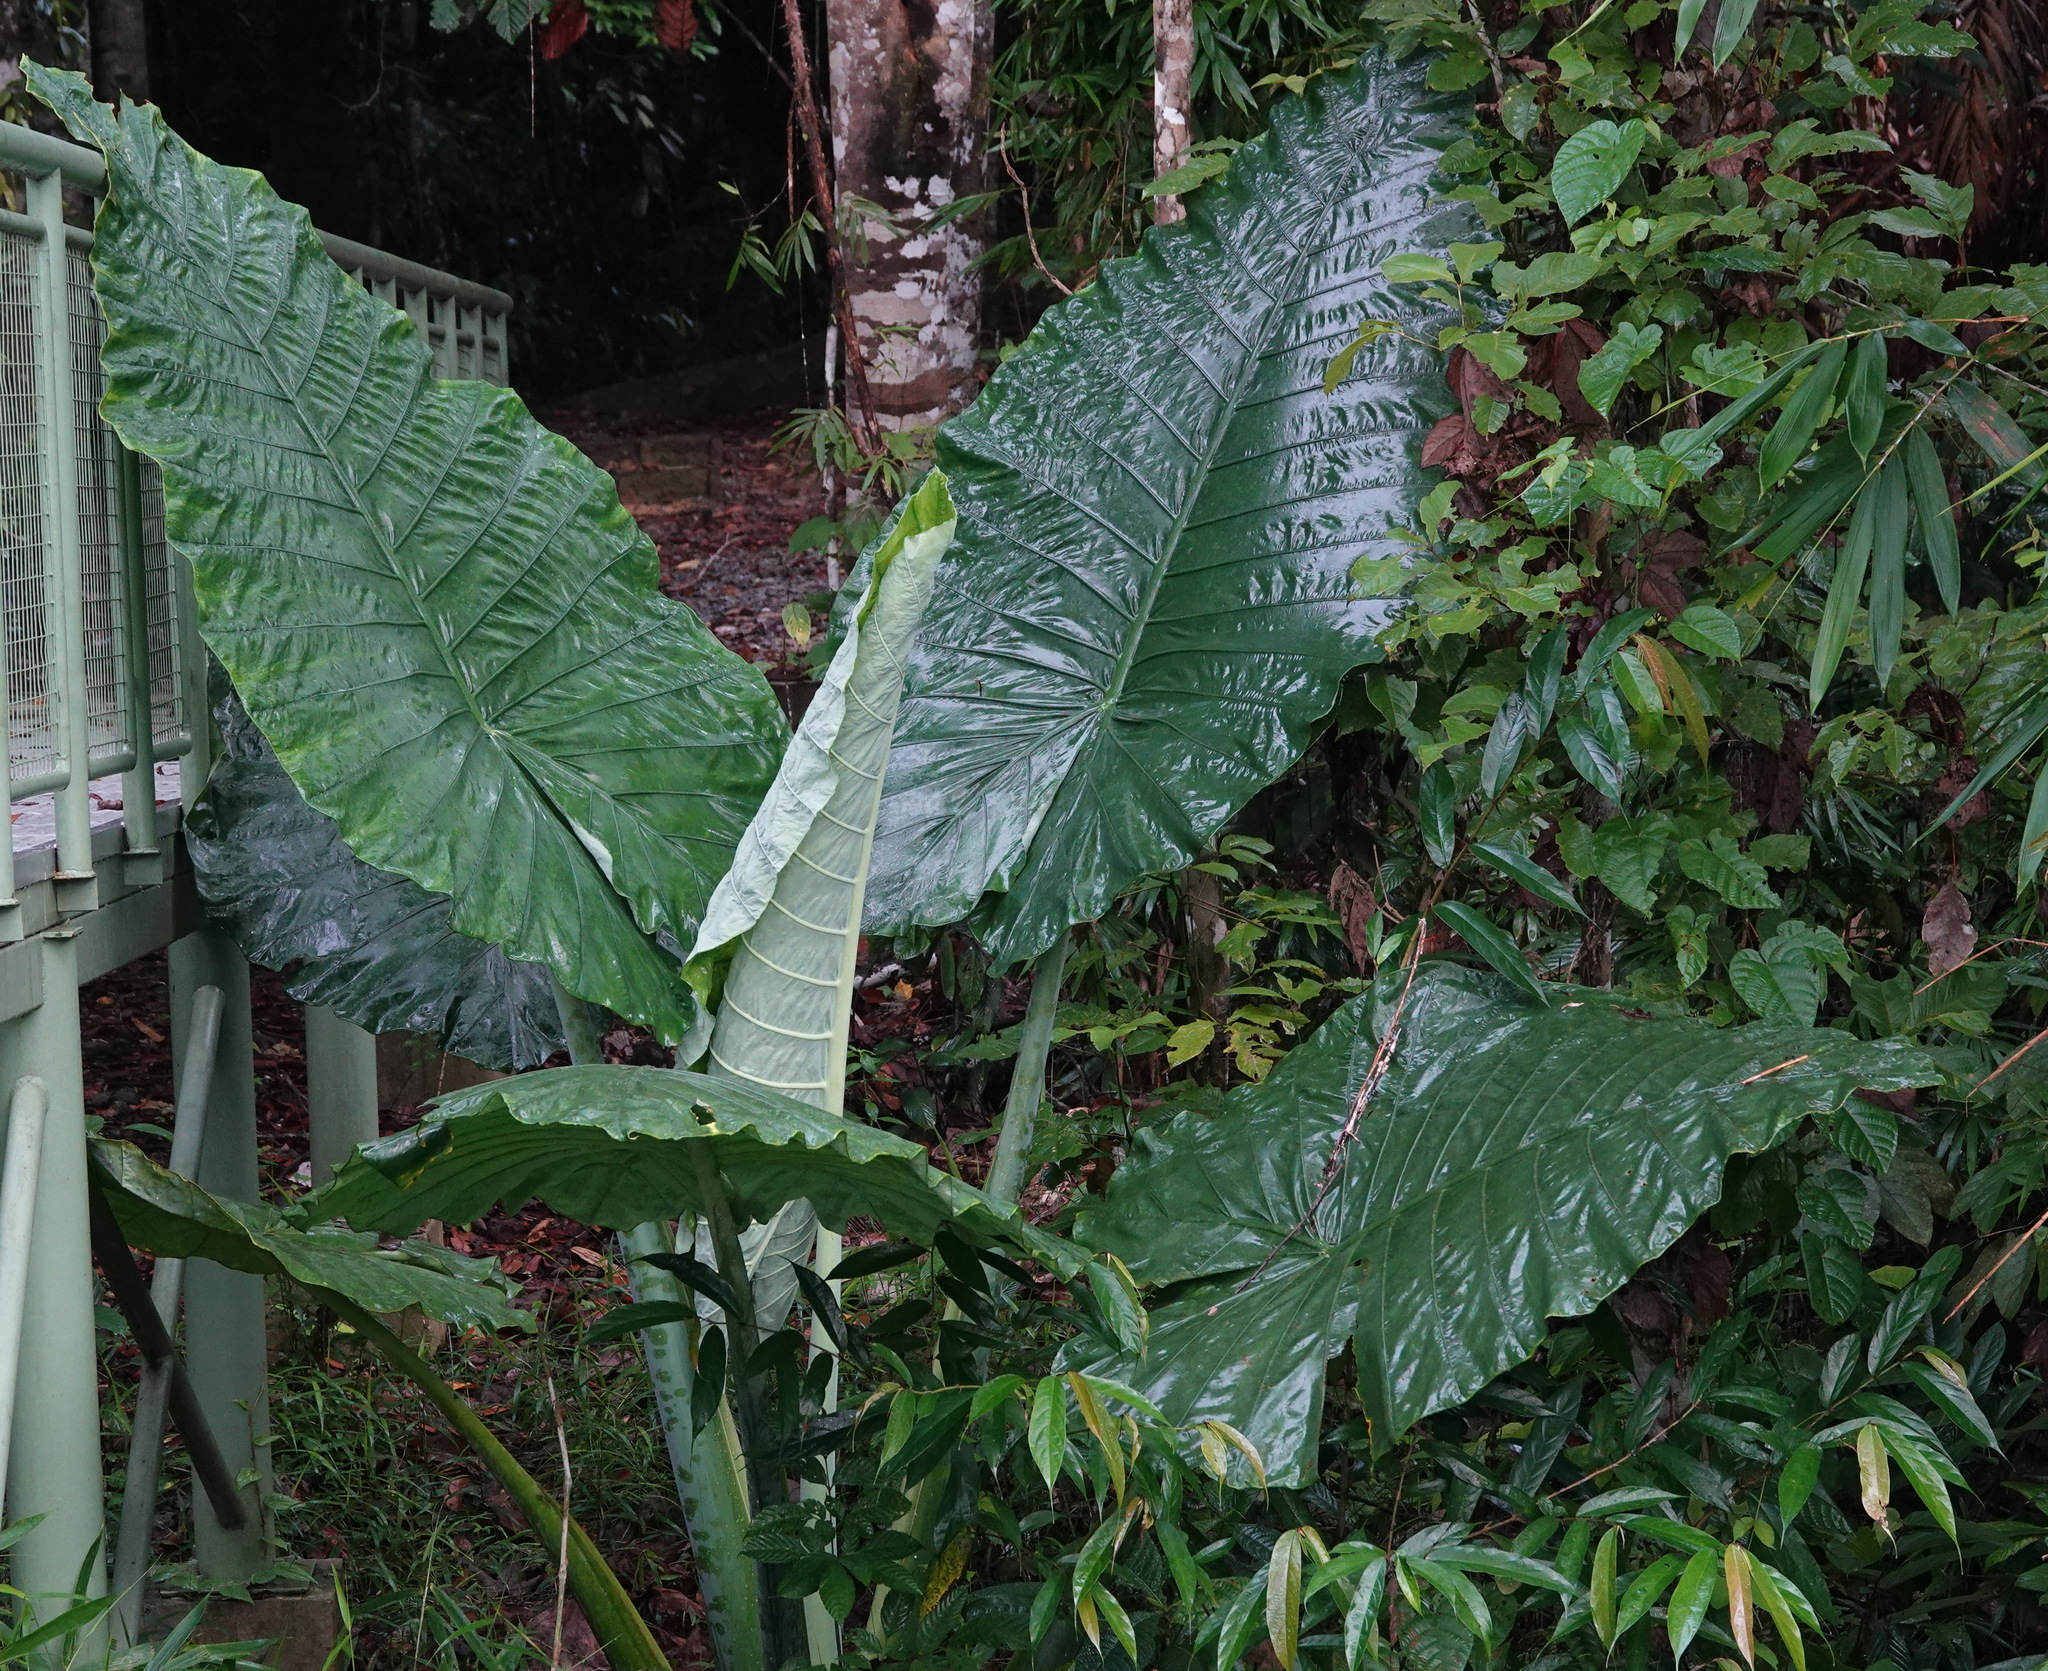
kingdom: Plantae
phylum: Tracheophyta
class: Liliopsida
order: Alismatales
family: Araceae
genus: Alocasia
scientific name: Alocasia robusta
